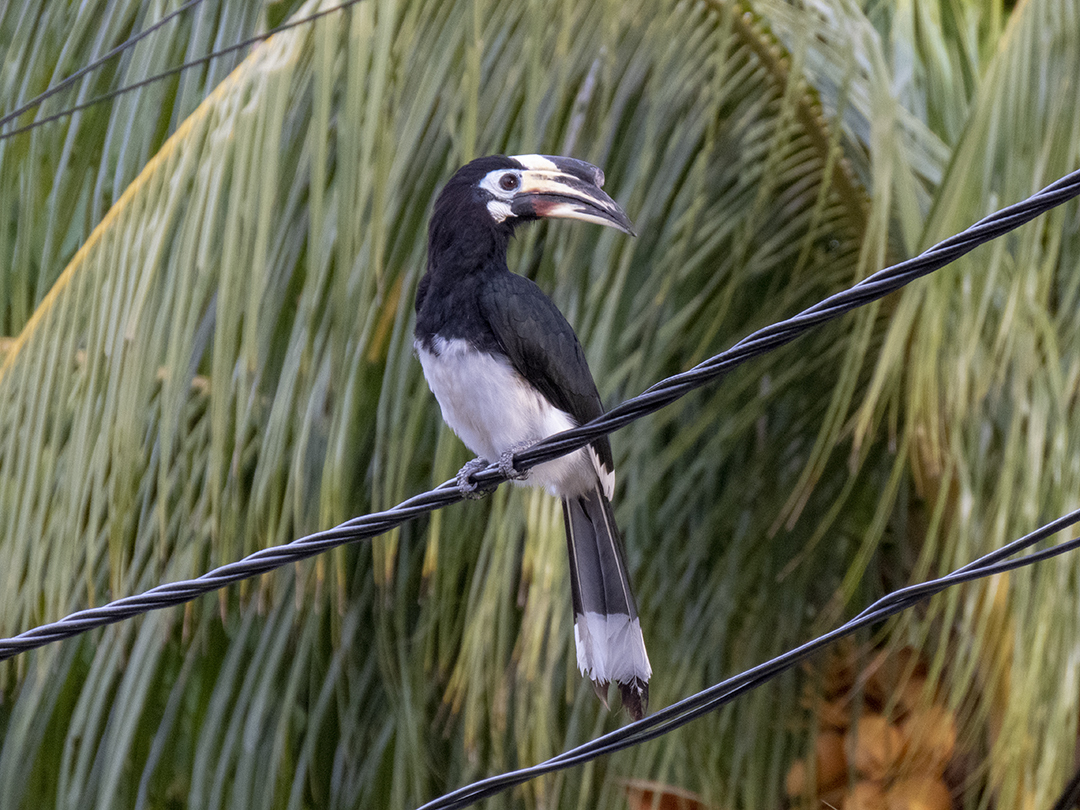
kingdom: Animalia
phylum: Chordata
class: Aves
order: Bucerotiformes
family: Bucerotidae
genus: Anthracoceros
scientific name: Anthracoceros albirostris
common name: Oriental pied-hornbill
